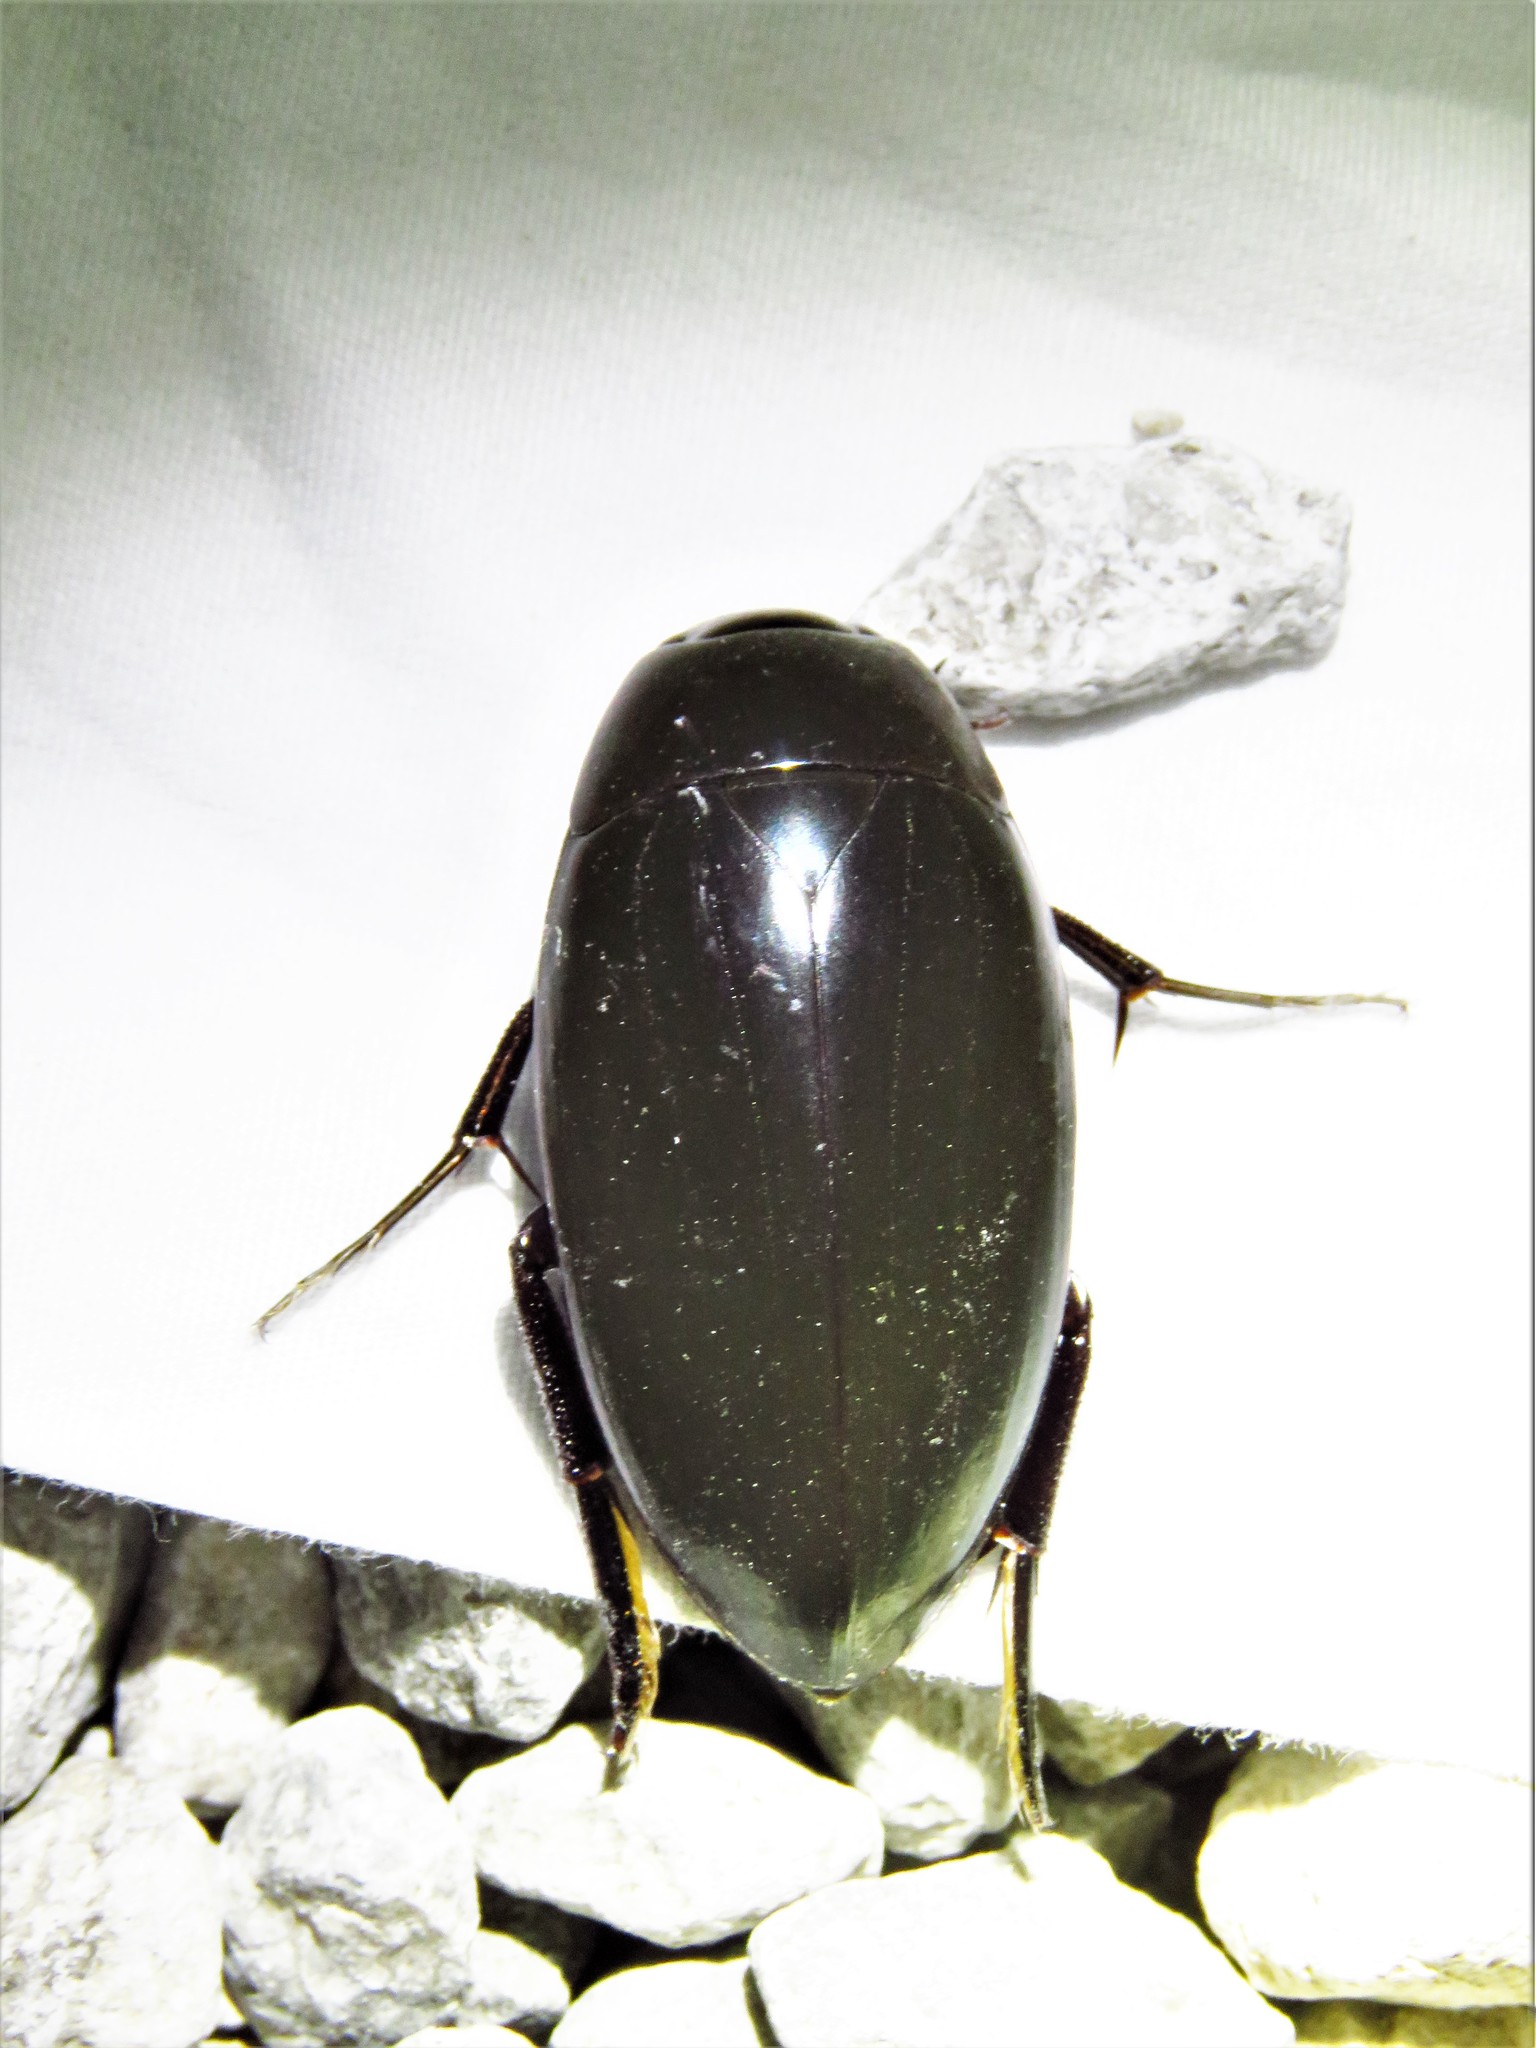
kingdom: Animalia
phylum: Arthropoda
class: Insecta
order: Coleoptera
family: Hydrophilidae
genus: Hydrophilus
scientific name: Hydrophilus triangularis
